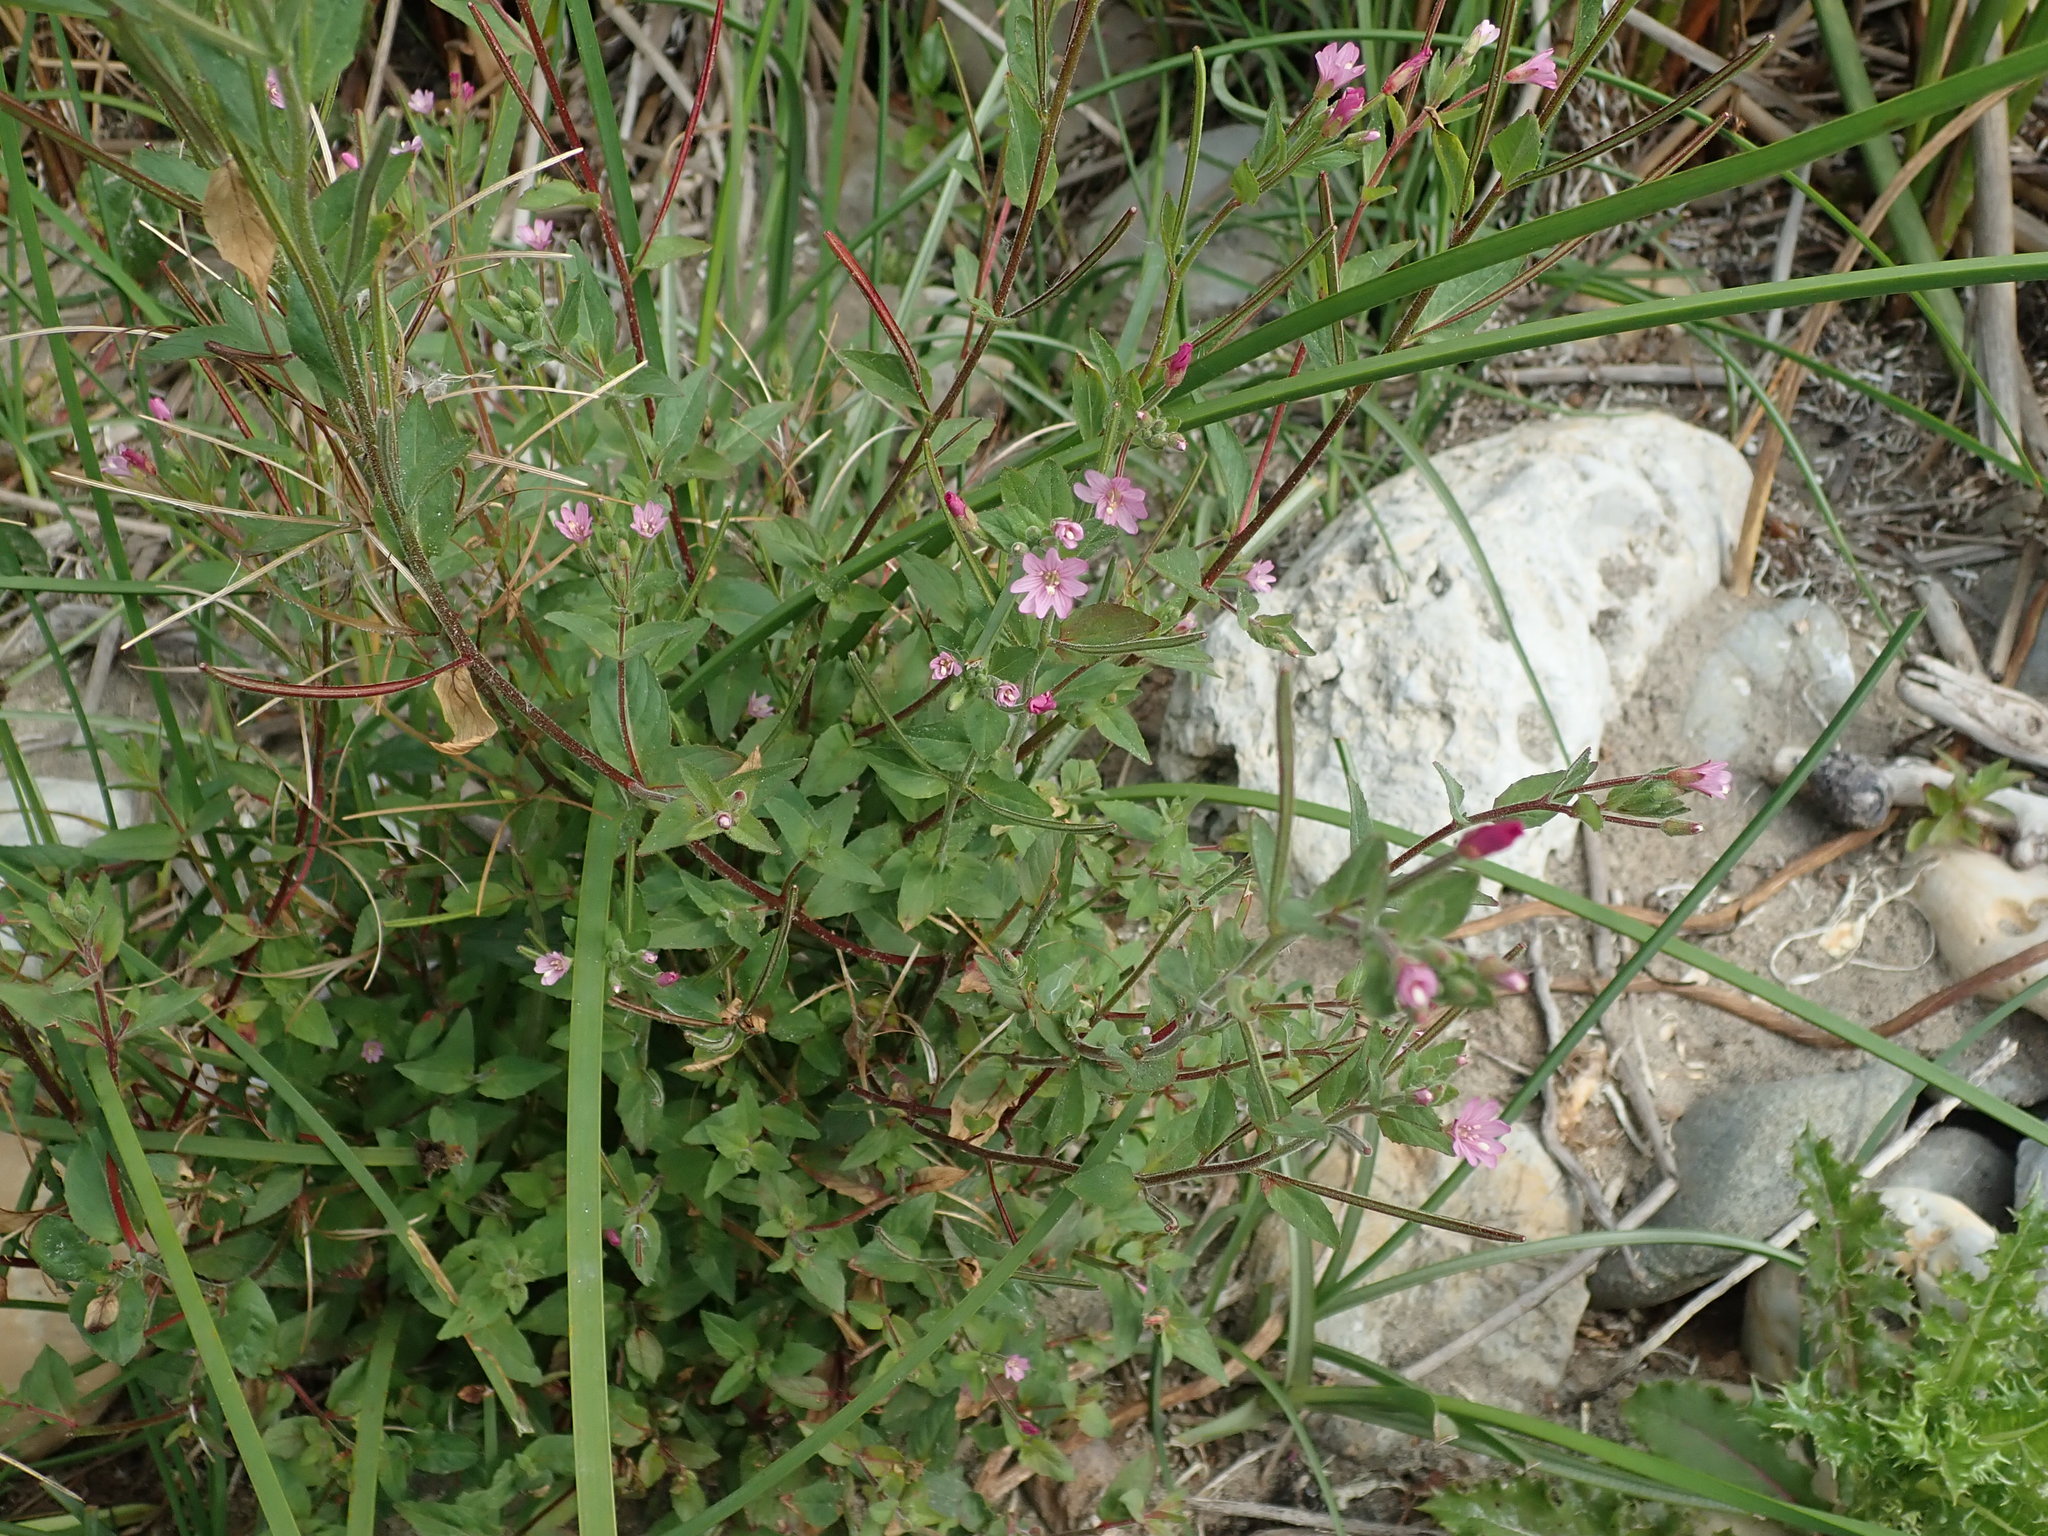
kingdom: Plantae
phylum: Tracheophyta
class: Magnoliopsida
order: Myrtales
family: Onagraceae
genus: Epilobium
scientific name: Epilobium ciliatum
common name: American willowherb
